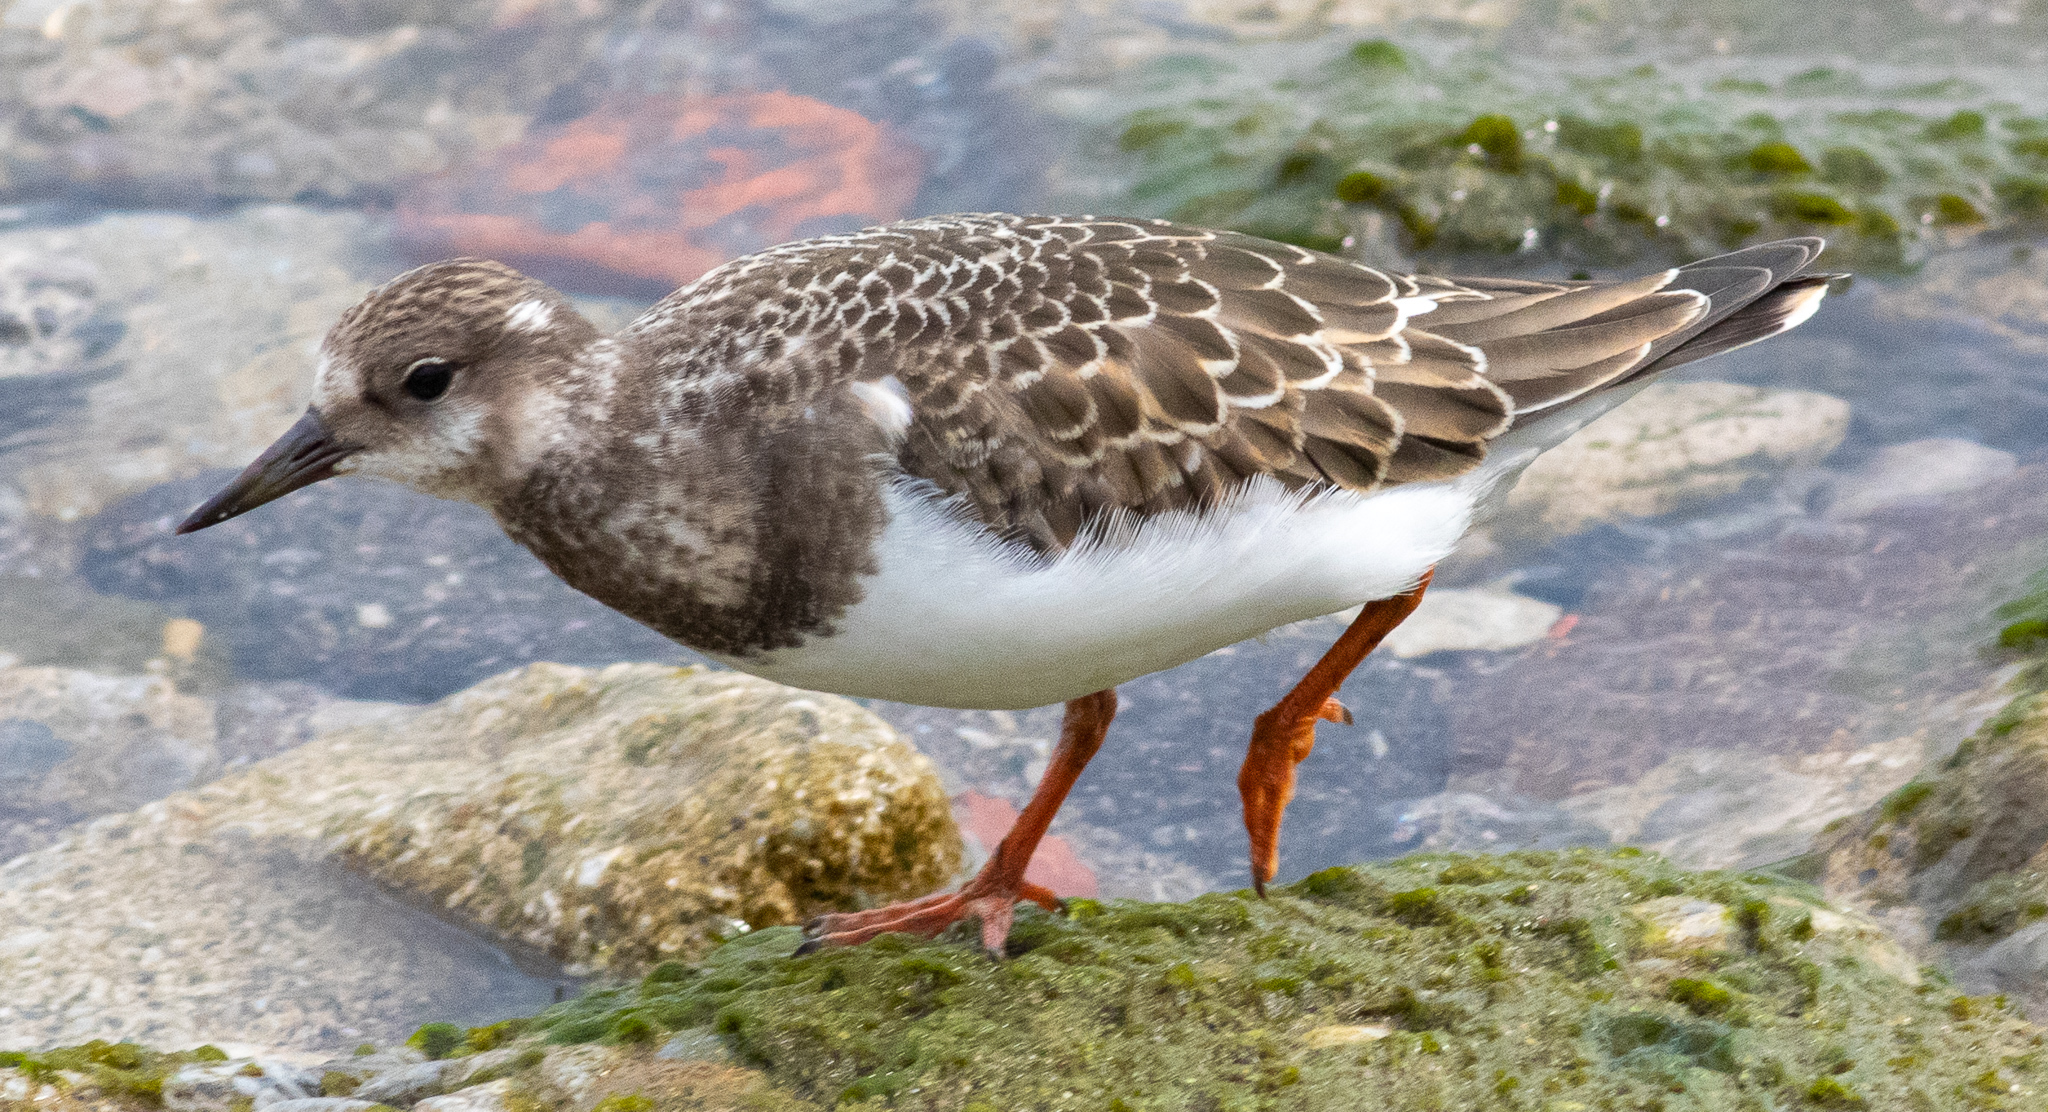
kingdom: Animalia
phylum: Chordata
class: Aves
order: Charadriiformes
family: Scolopacidae
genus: Arenaria
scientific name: Arenaria interpres
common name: Ruddy turnstone
